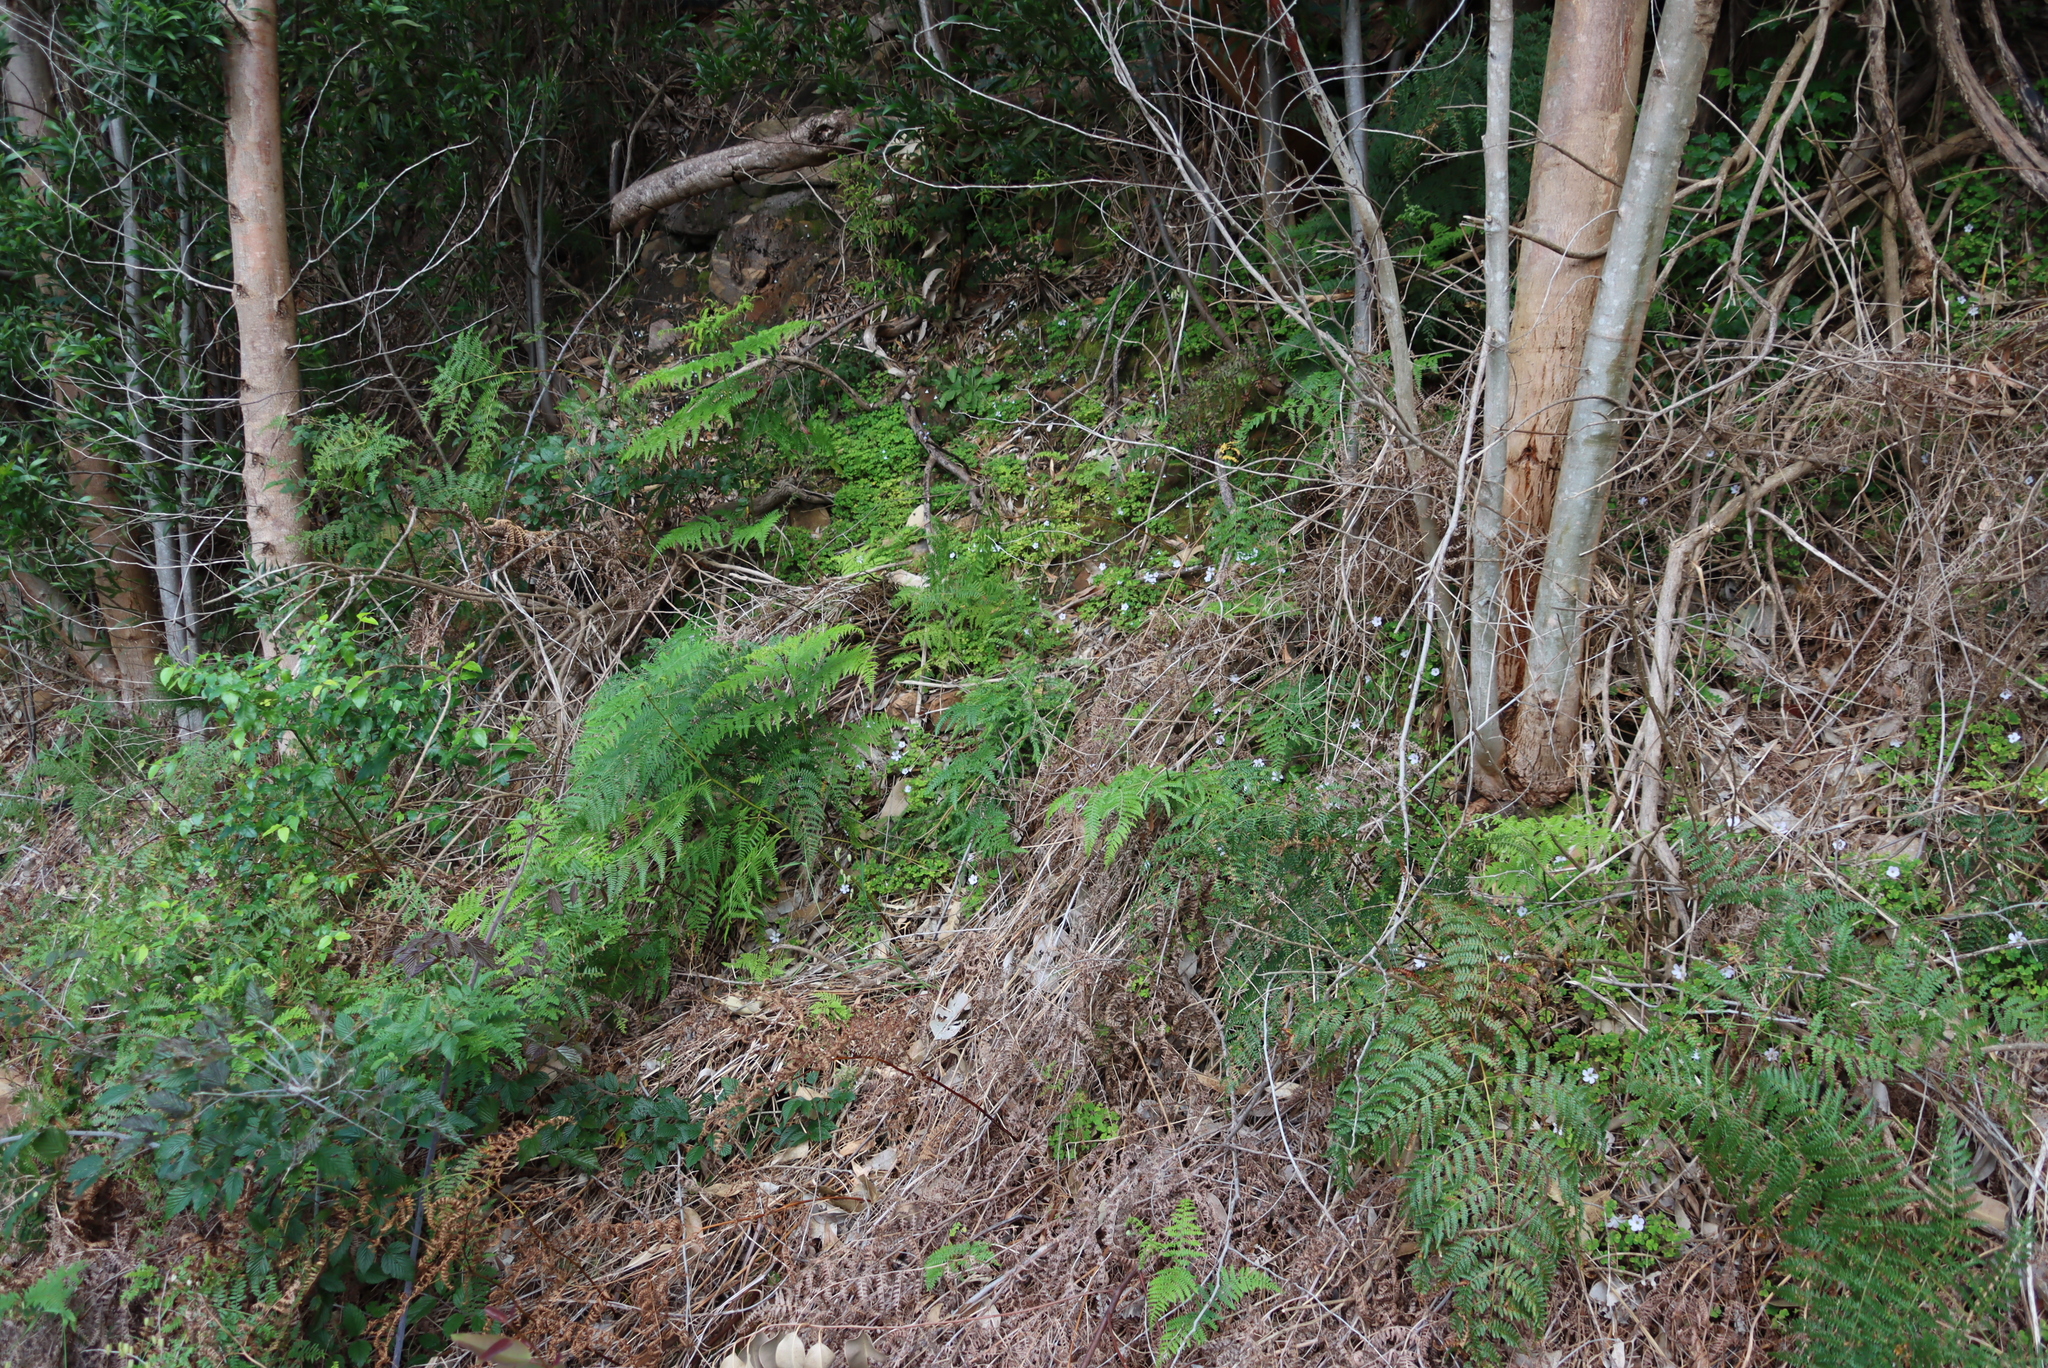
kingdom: Plantae
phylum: Tracheophyta
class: Magnoliopsida
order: Oxalidales
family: Oxalidaceae
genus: Oxalis
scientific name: Oxalis incarnata
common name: Pale pink-sorrel
